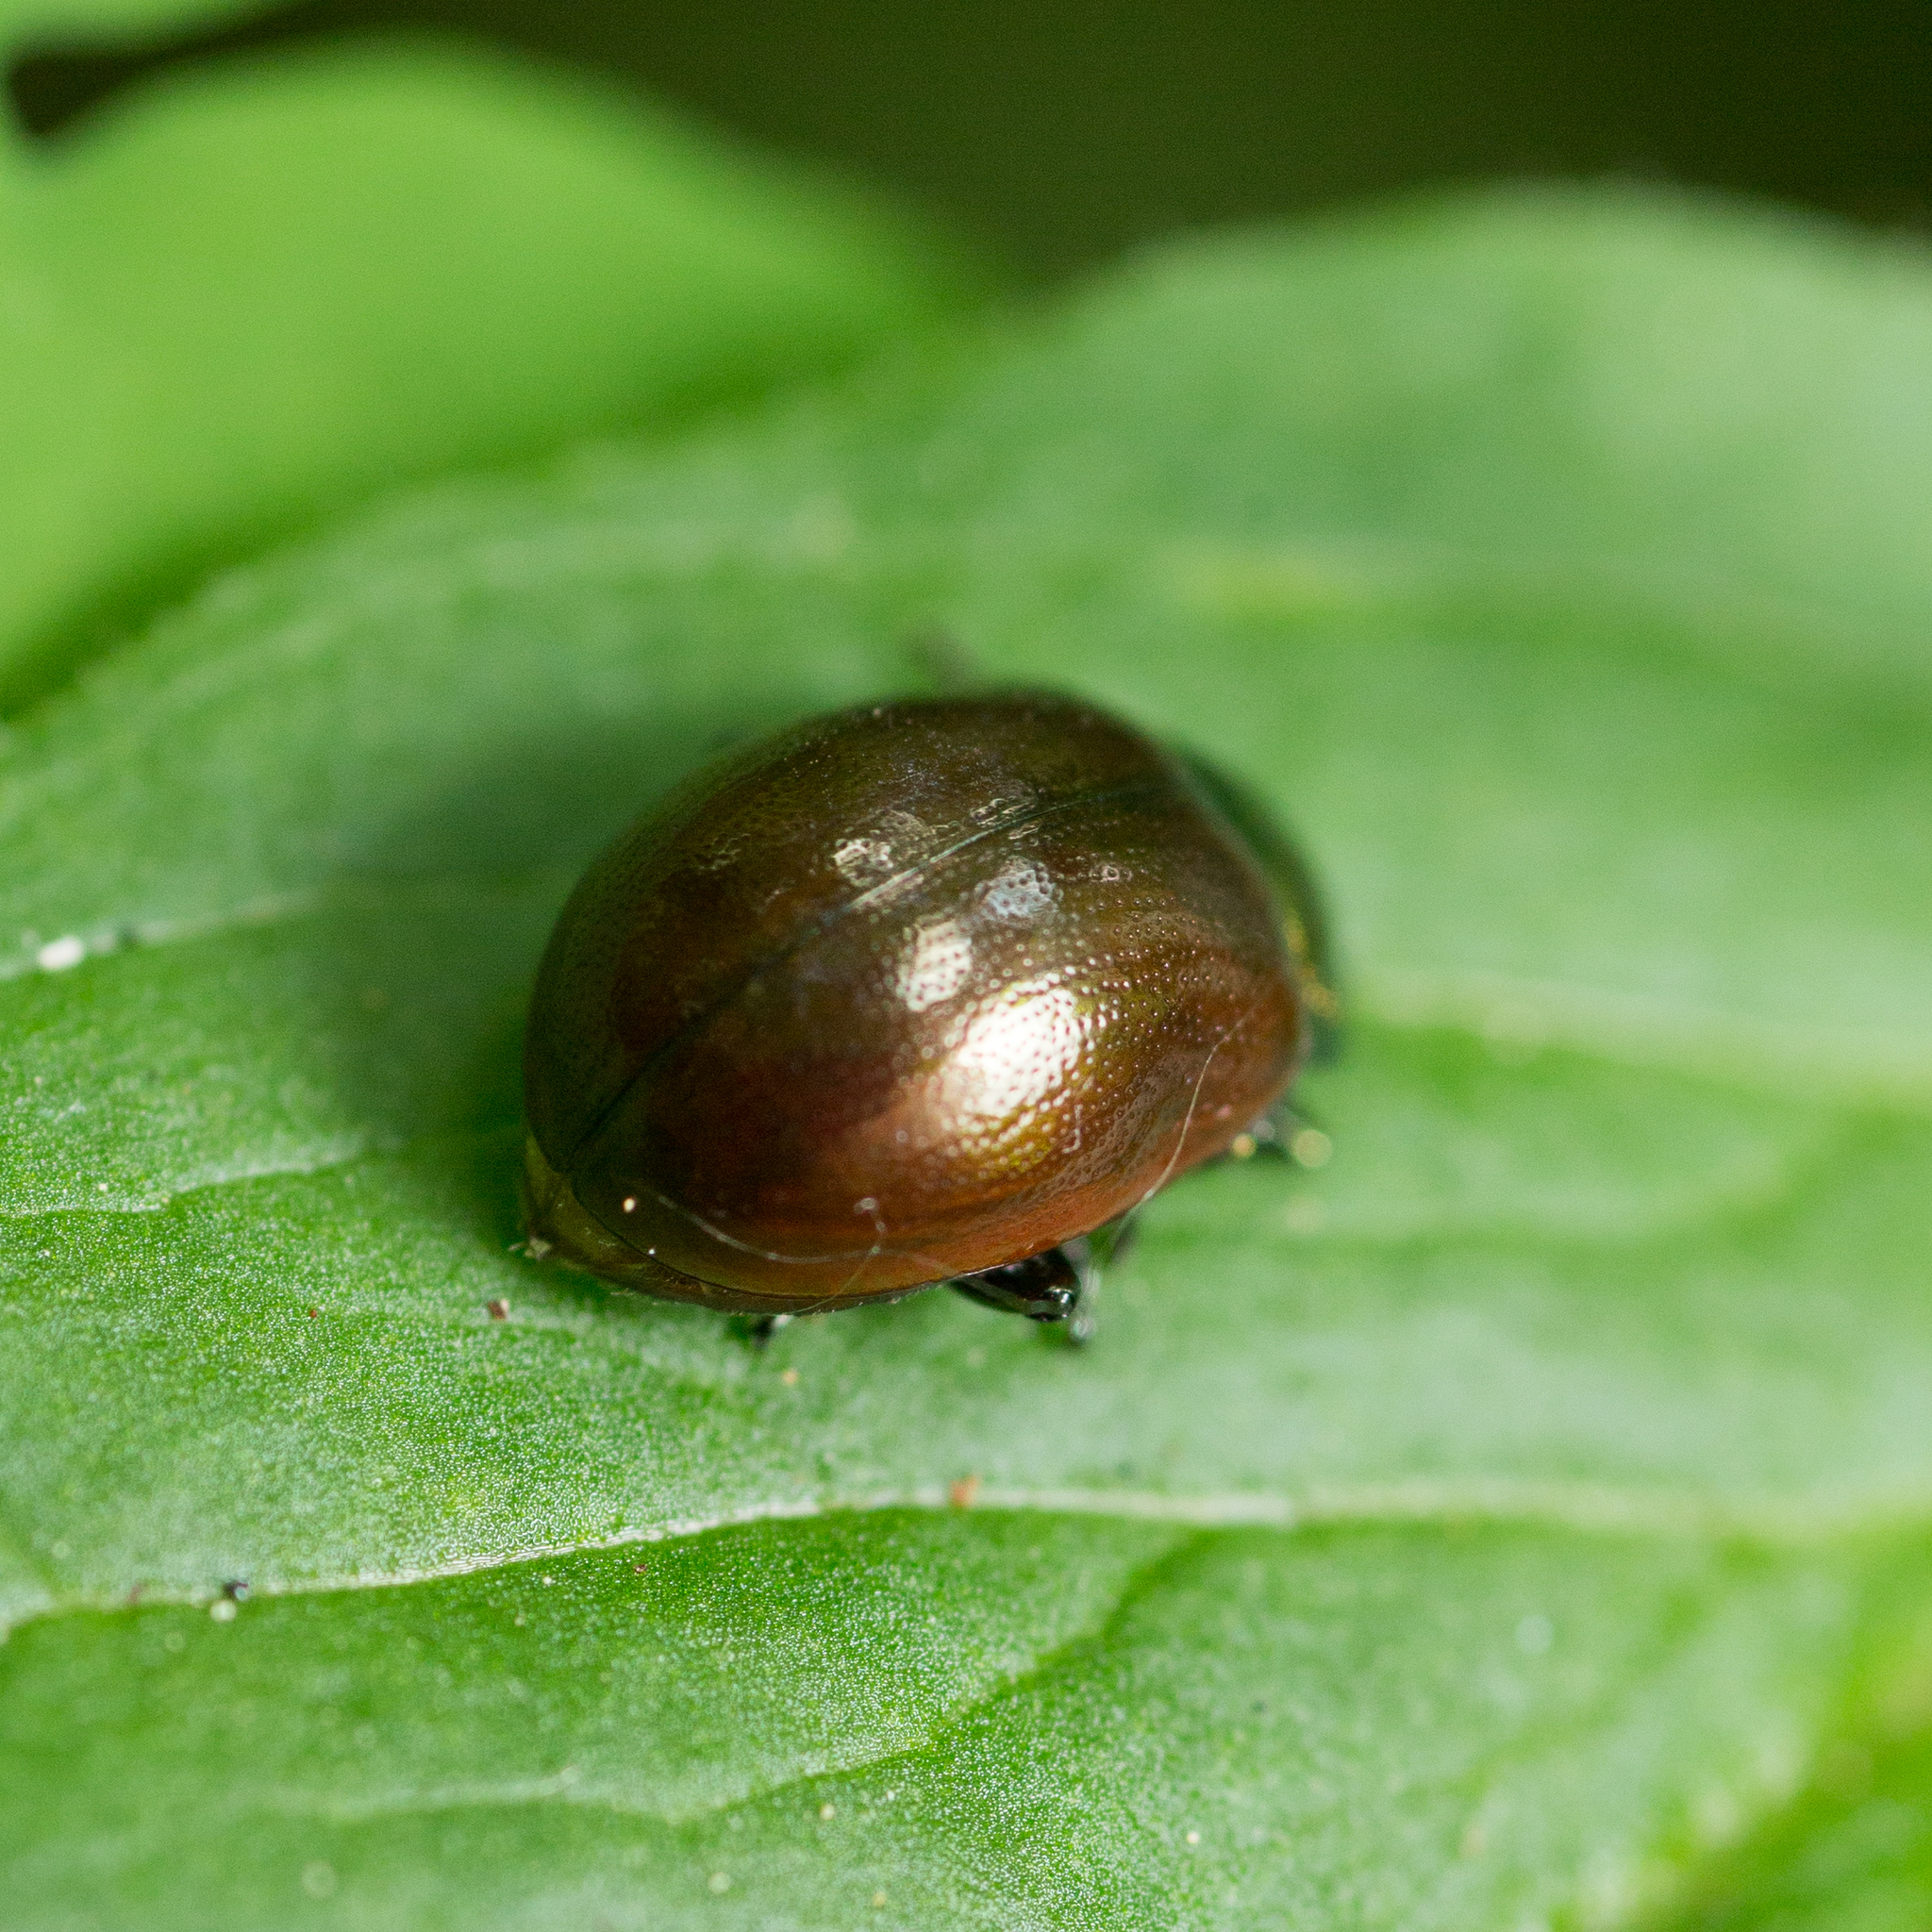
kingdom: Animalia
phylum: Arthropoda
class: Insecta
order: Coleoptera
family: Chrysomelidae
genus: Chrysomela
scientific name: Chrysomela polita
